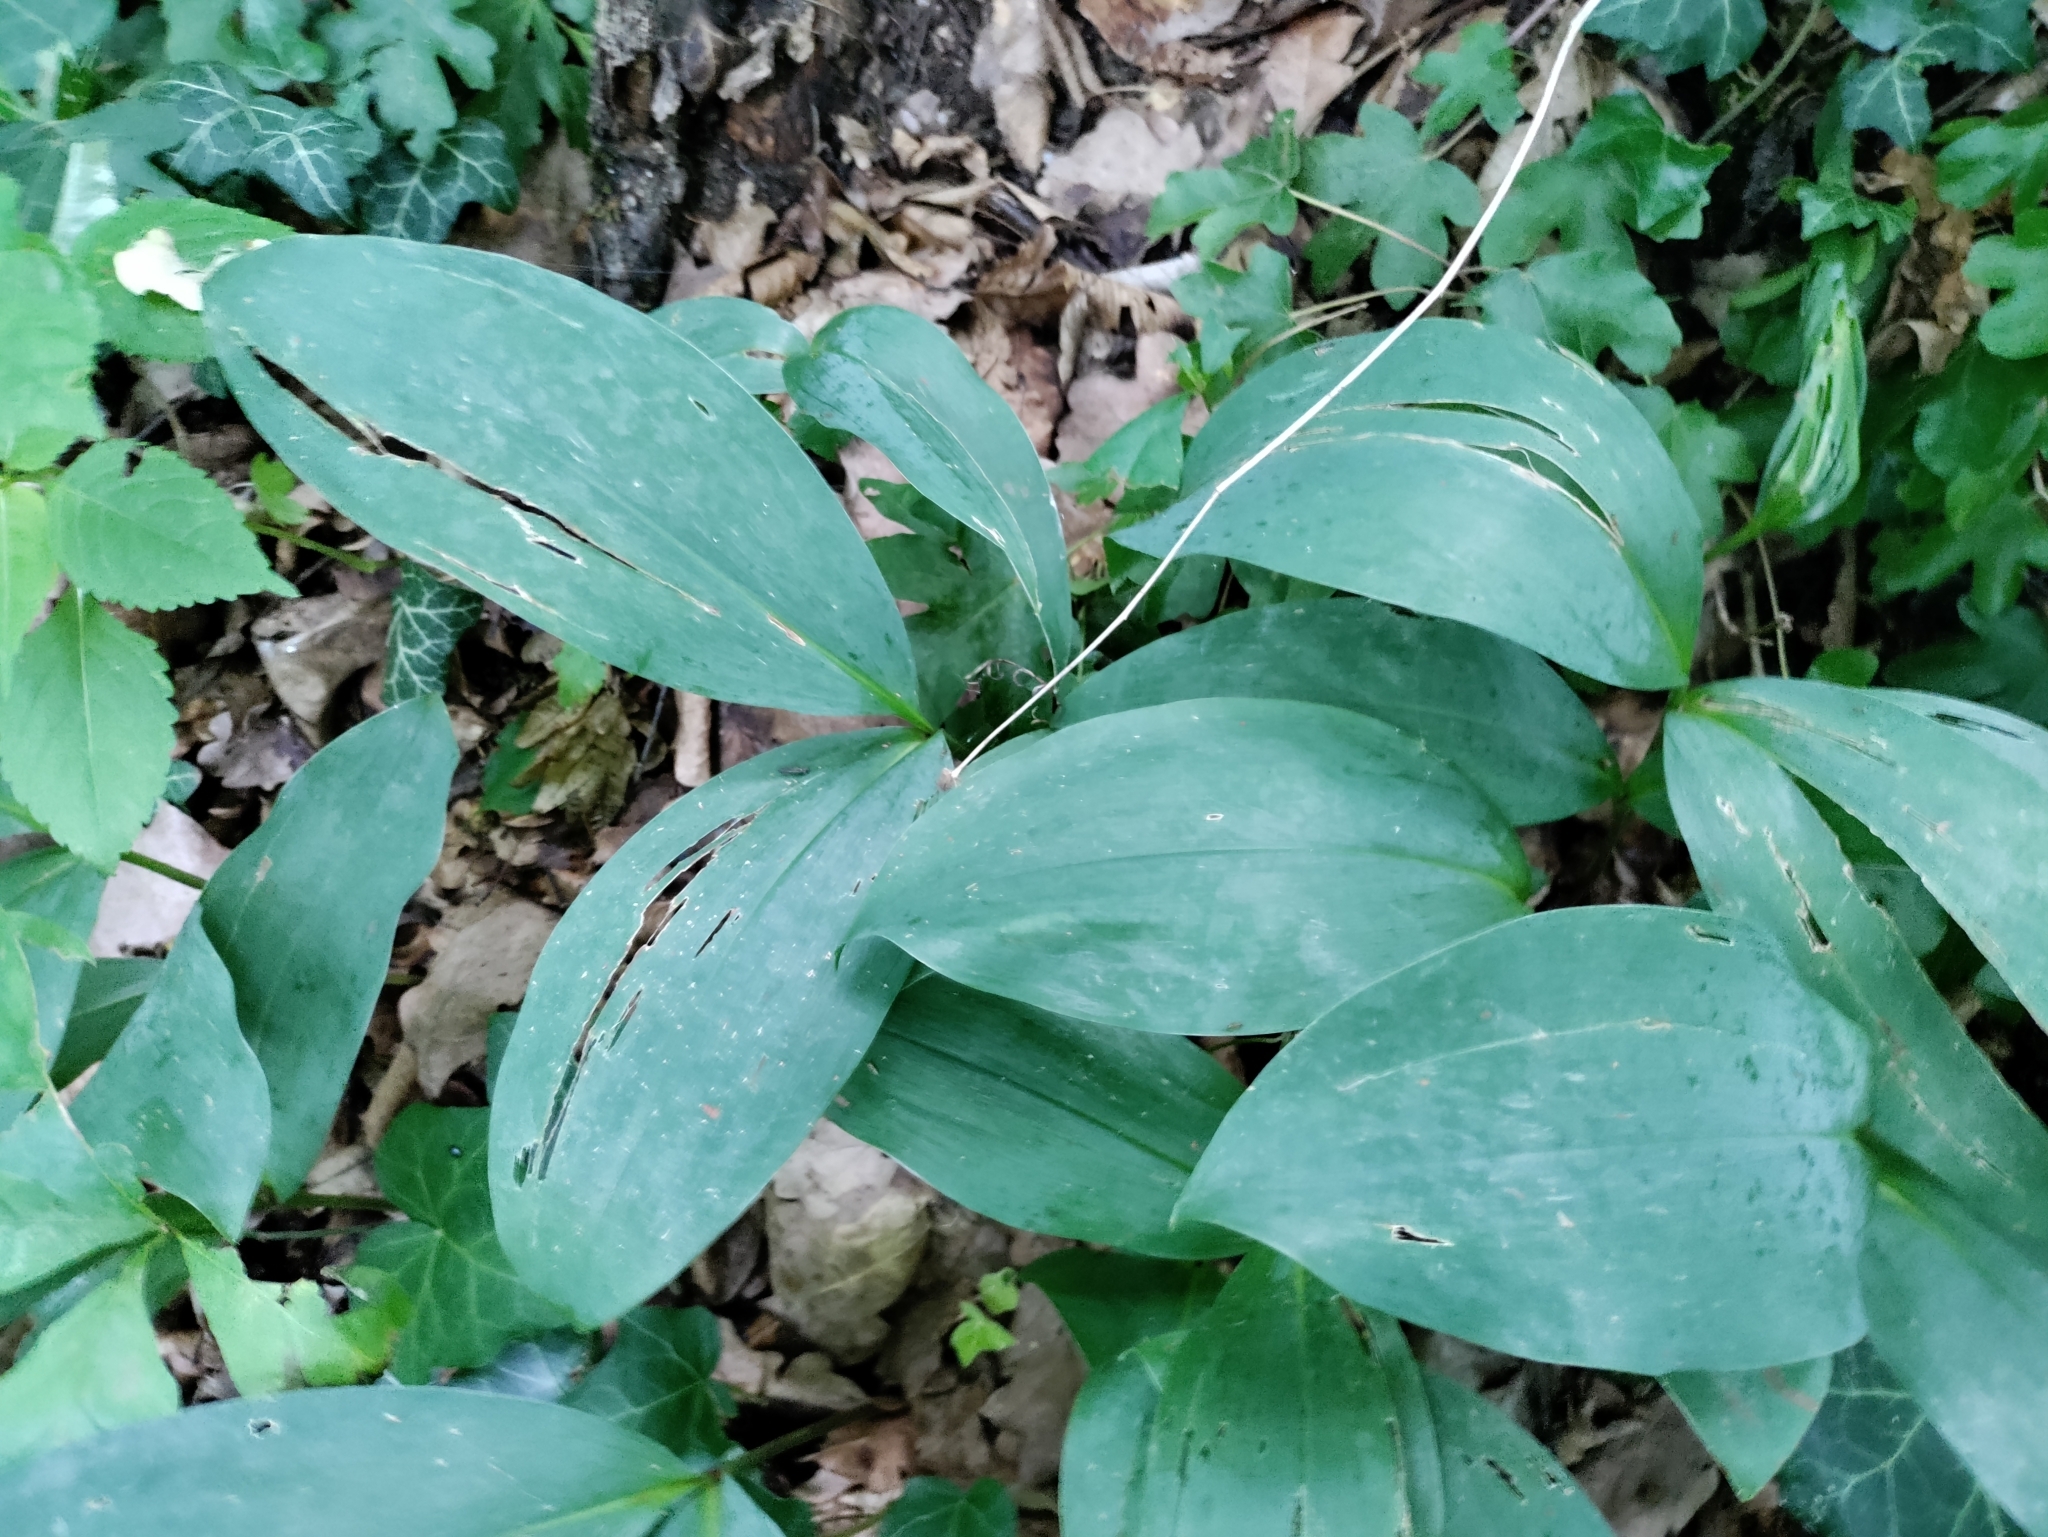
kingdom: Plantae
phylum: Tracheophyta
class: Liliopsida
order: Asparagales
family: Asparagaceae
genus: Convallaria
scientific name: Convallaria majalis
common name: Lily-of-the-valley
